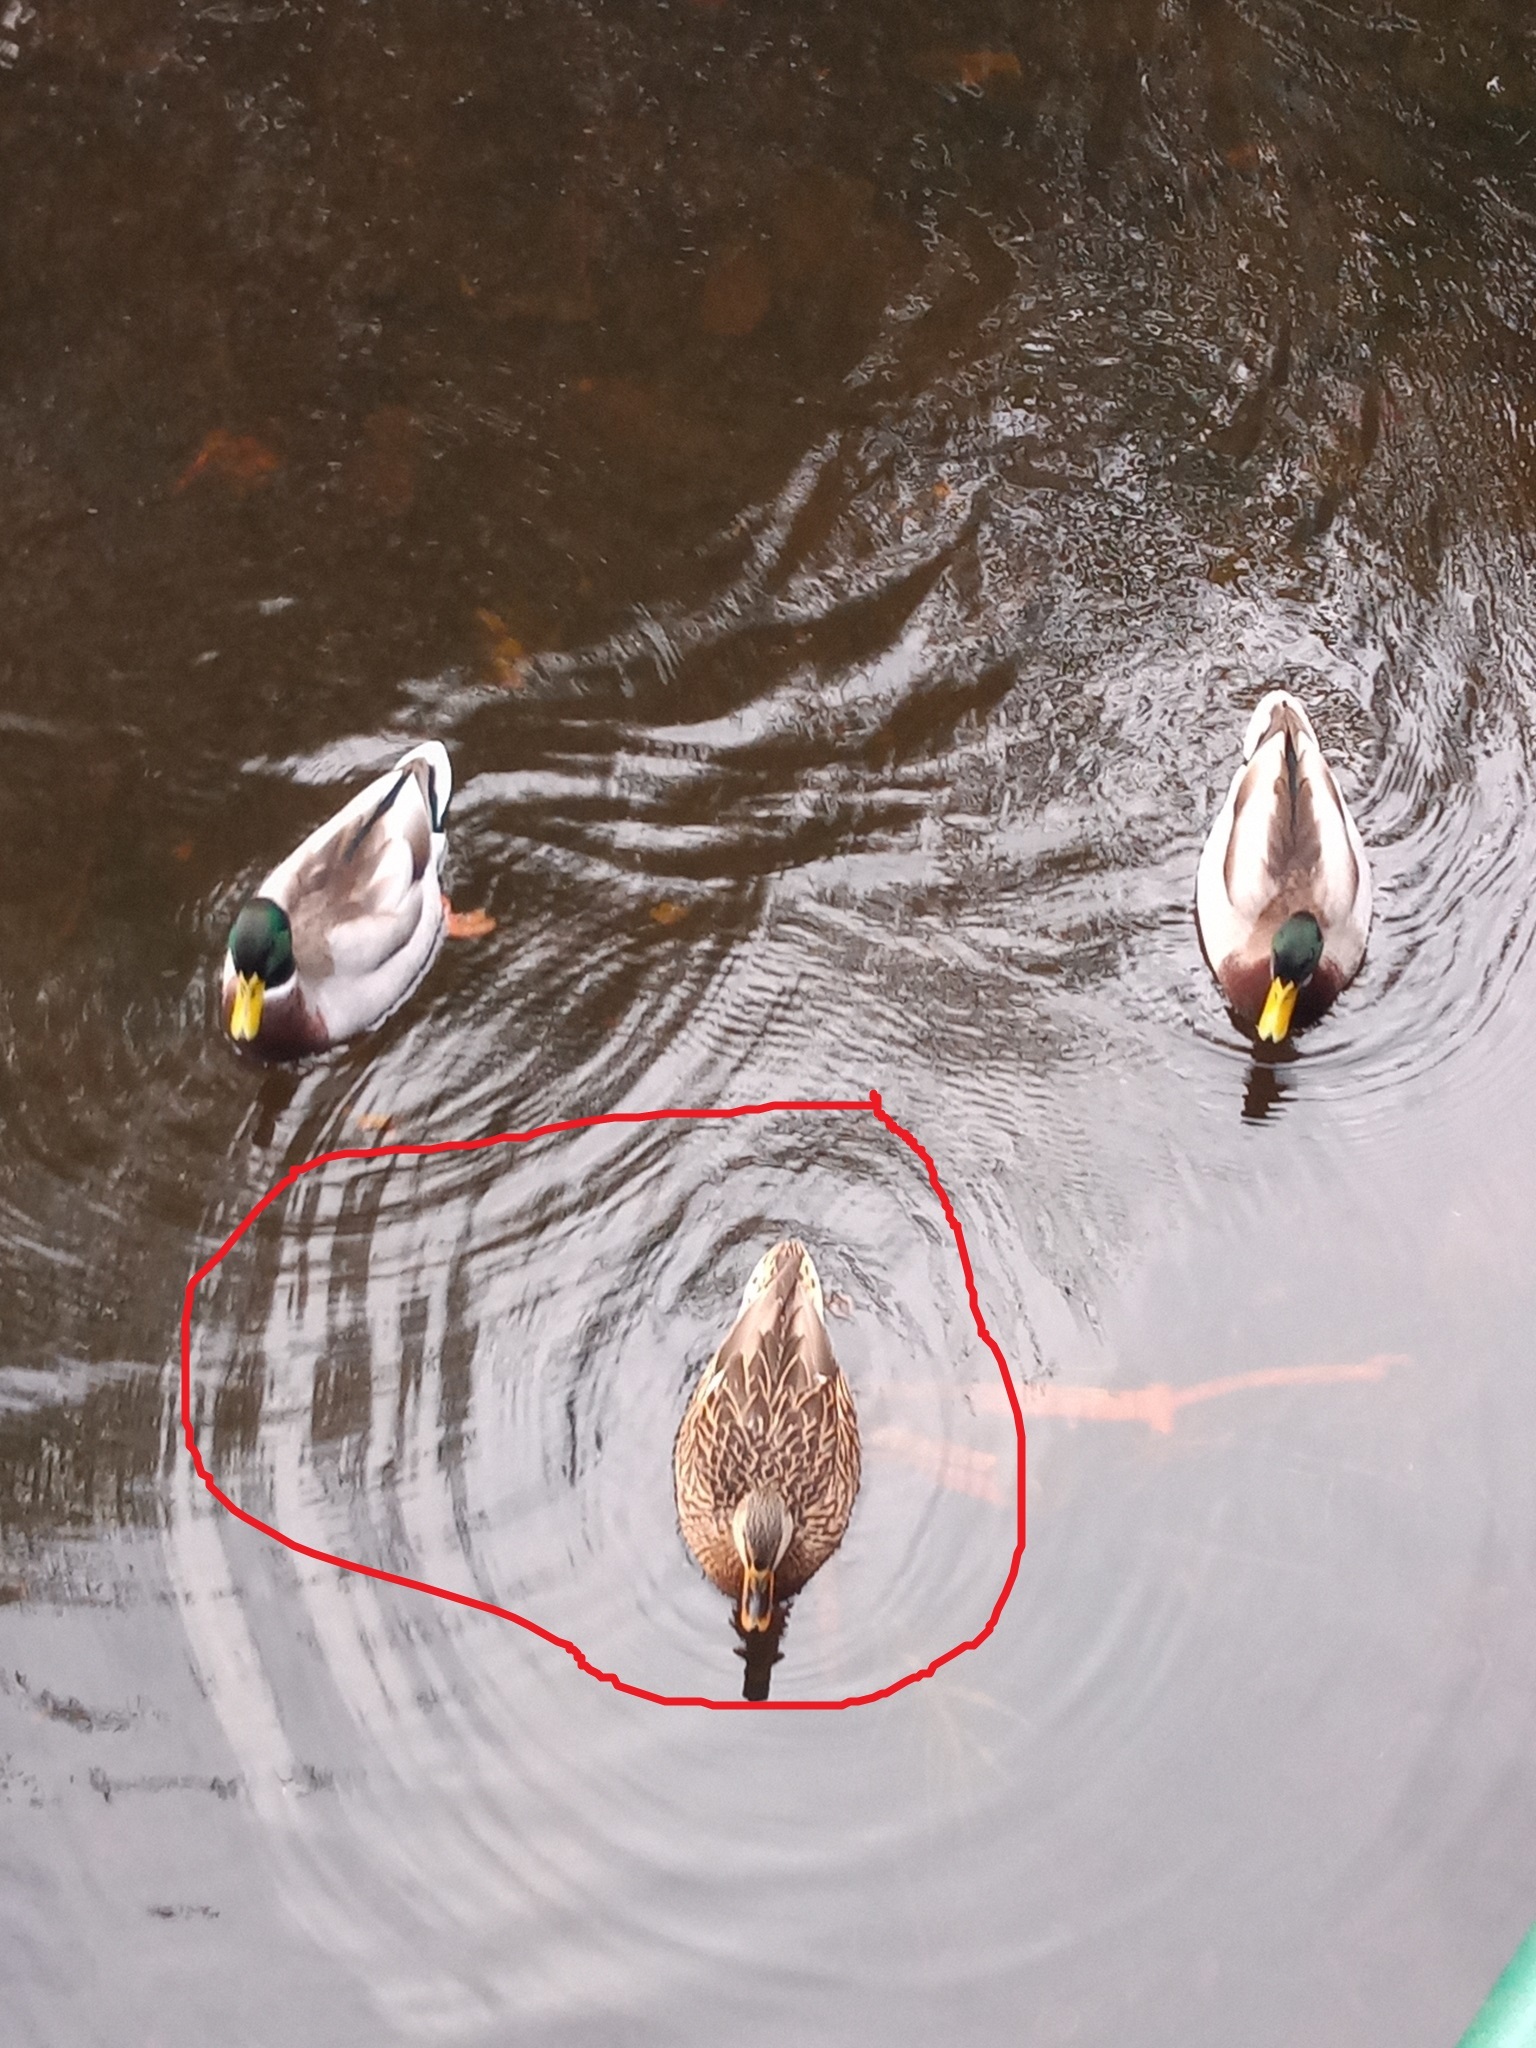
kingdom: Animalia
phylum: Chordata
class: Aves
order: Anseriformes
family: Anatidae
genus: Anas
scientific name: Anas platyrhynchos
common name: Mallard
